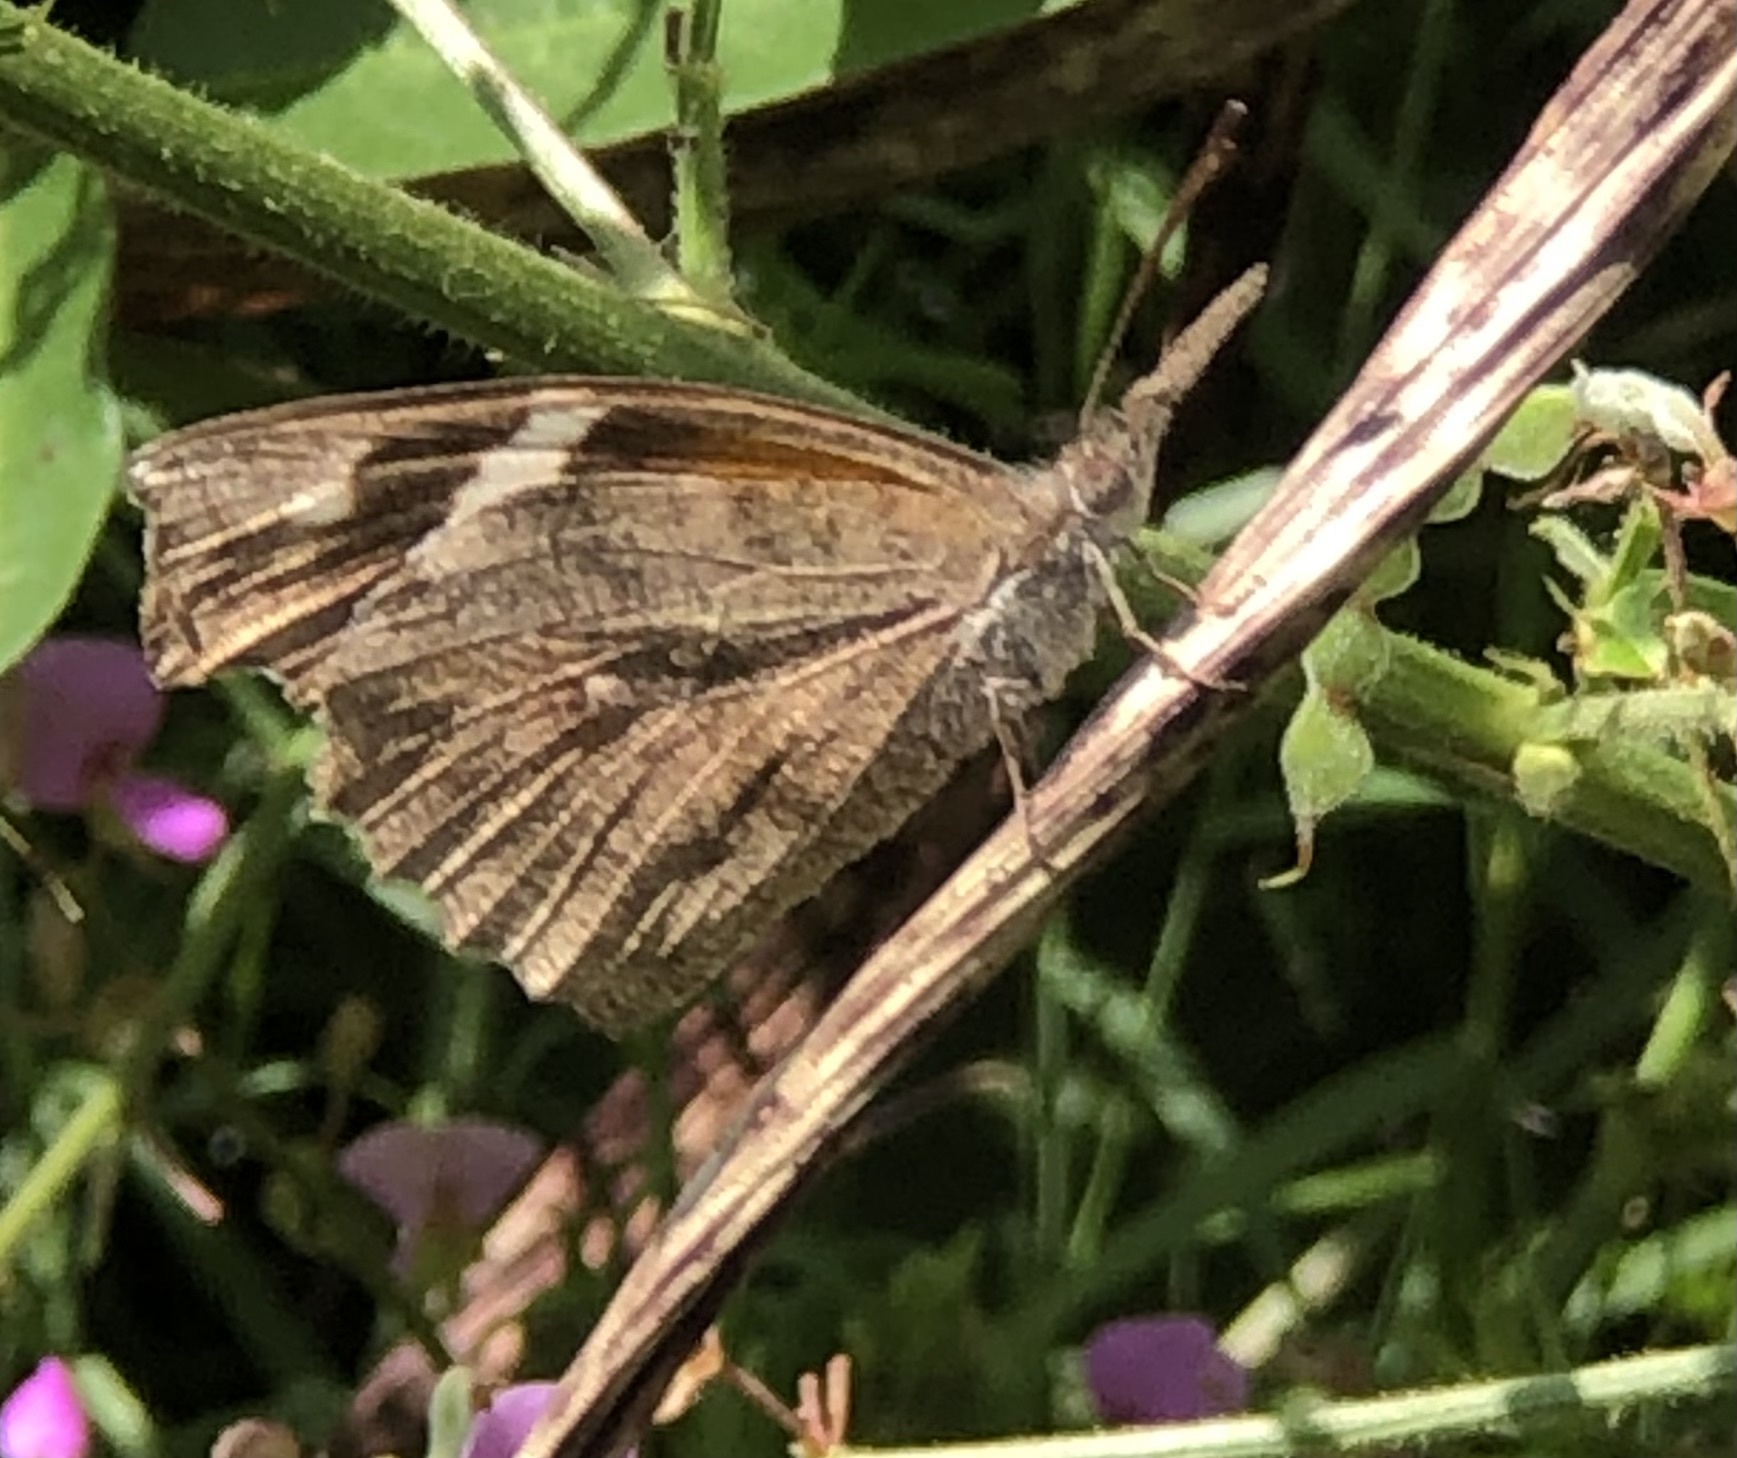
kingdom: Animalia
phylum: Arthropoda
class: Insecta
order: Lepidoptera
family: Nymphalidae
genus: Libytheana
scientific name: Libytheana carinenta
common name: American snout
